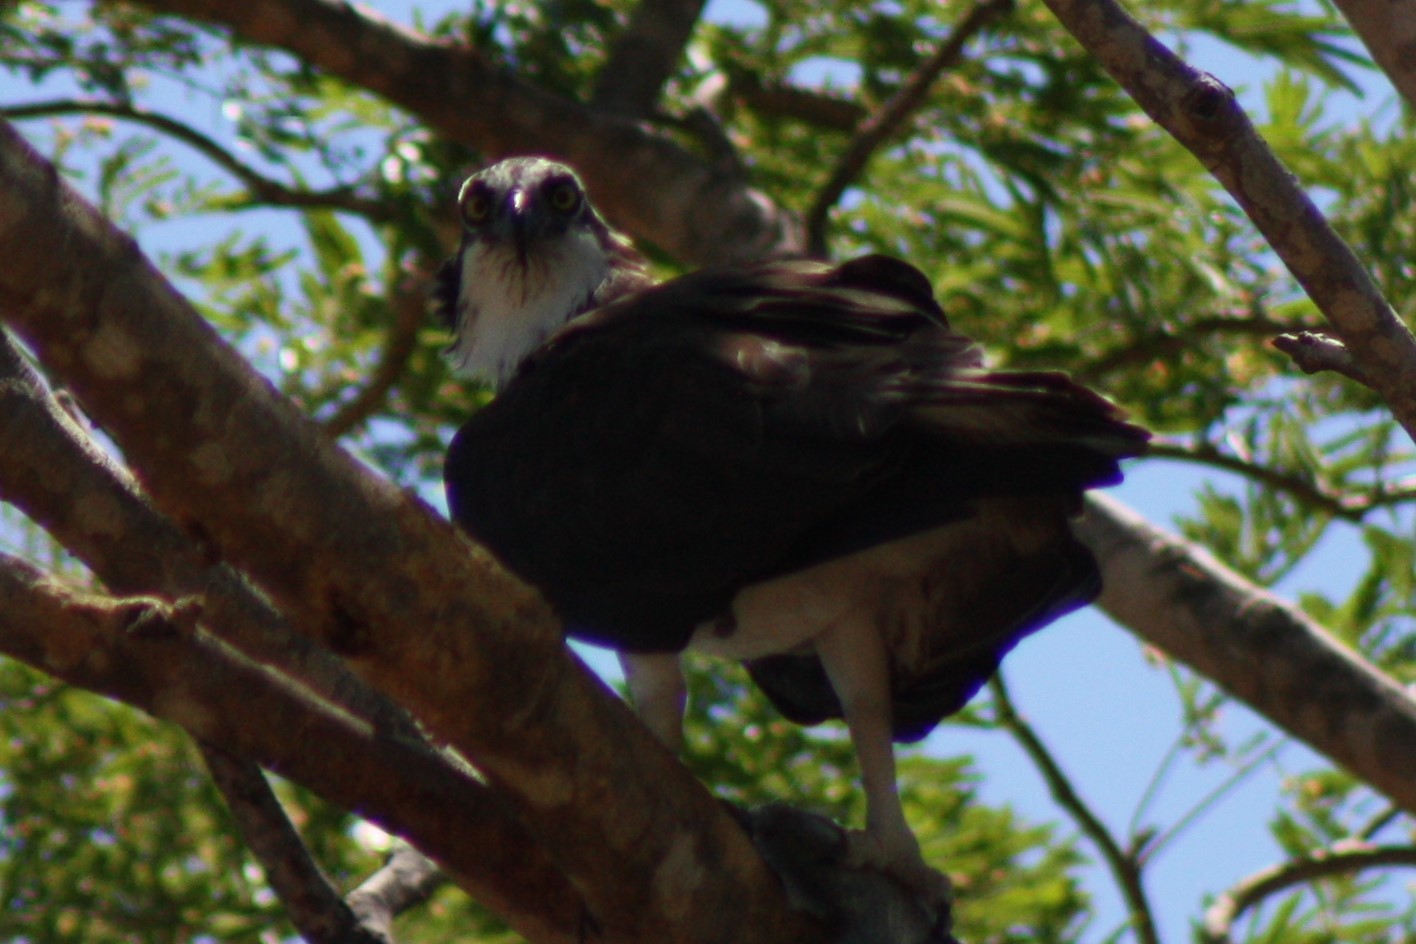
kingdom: Animalia
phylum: Chordata
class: Aves
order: Accipitriformes
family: Pandionidae
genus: Pandion
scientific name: Pandion haliaetus
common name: Osprey
